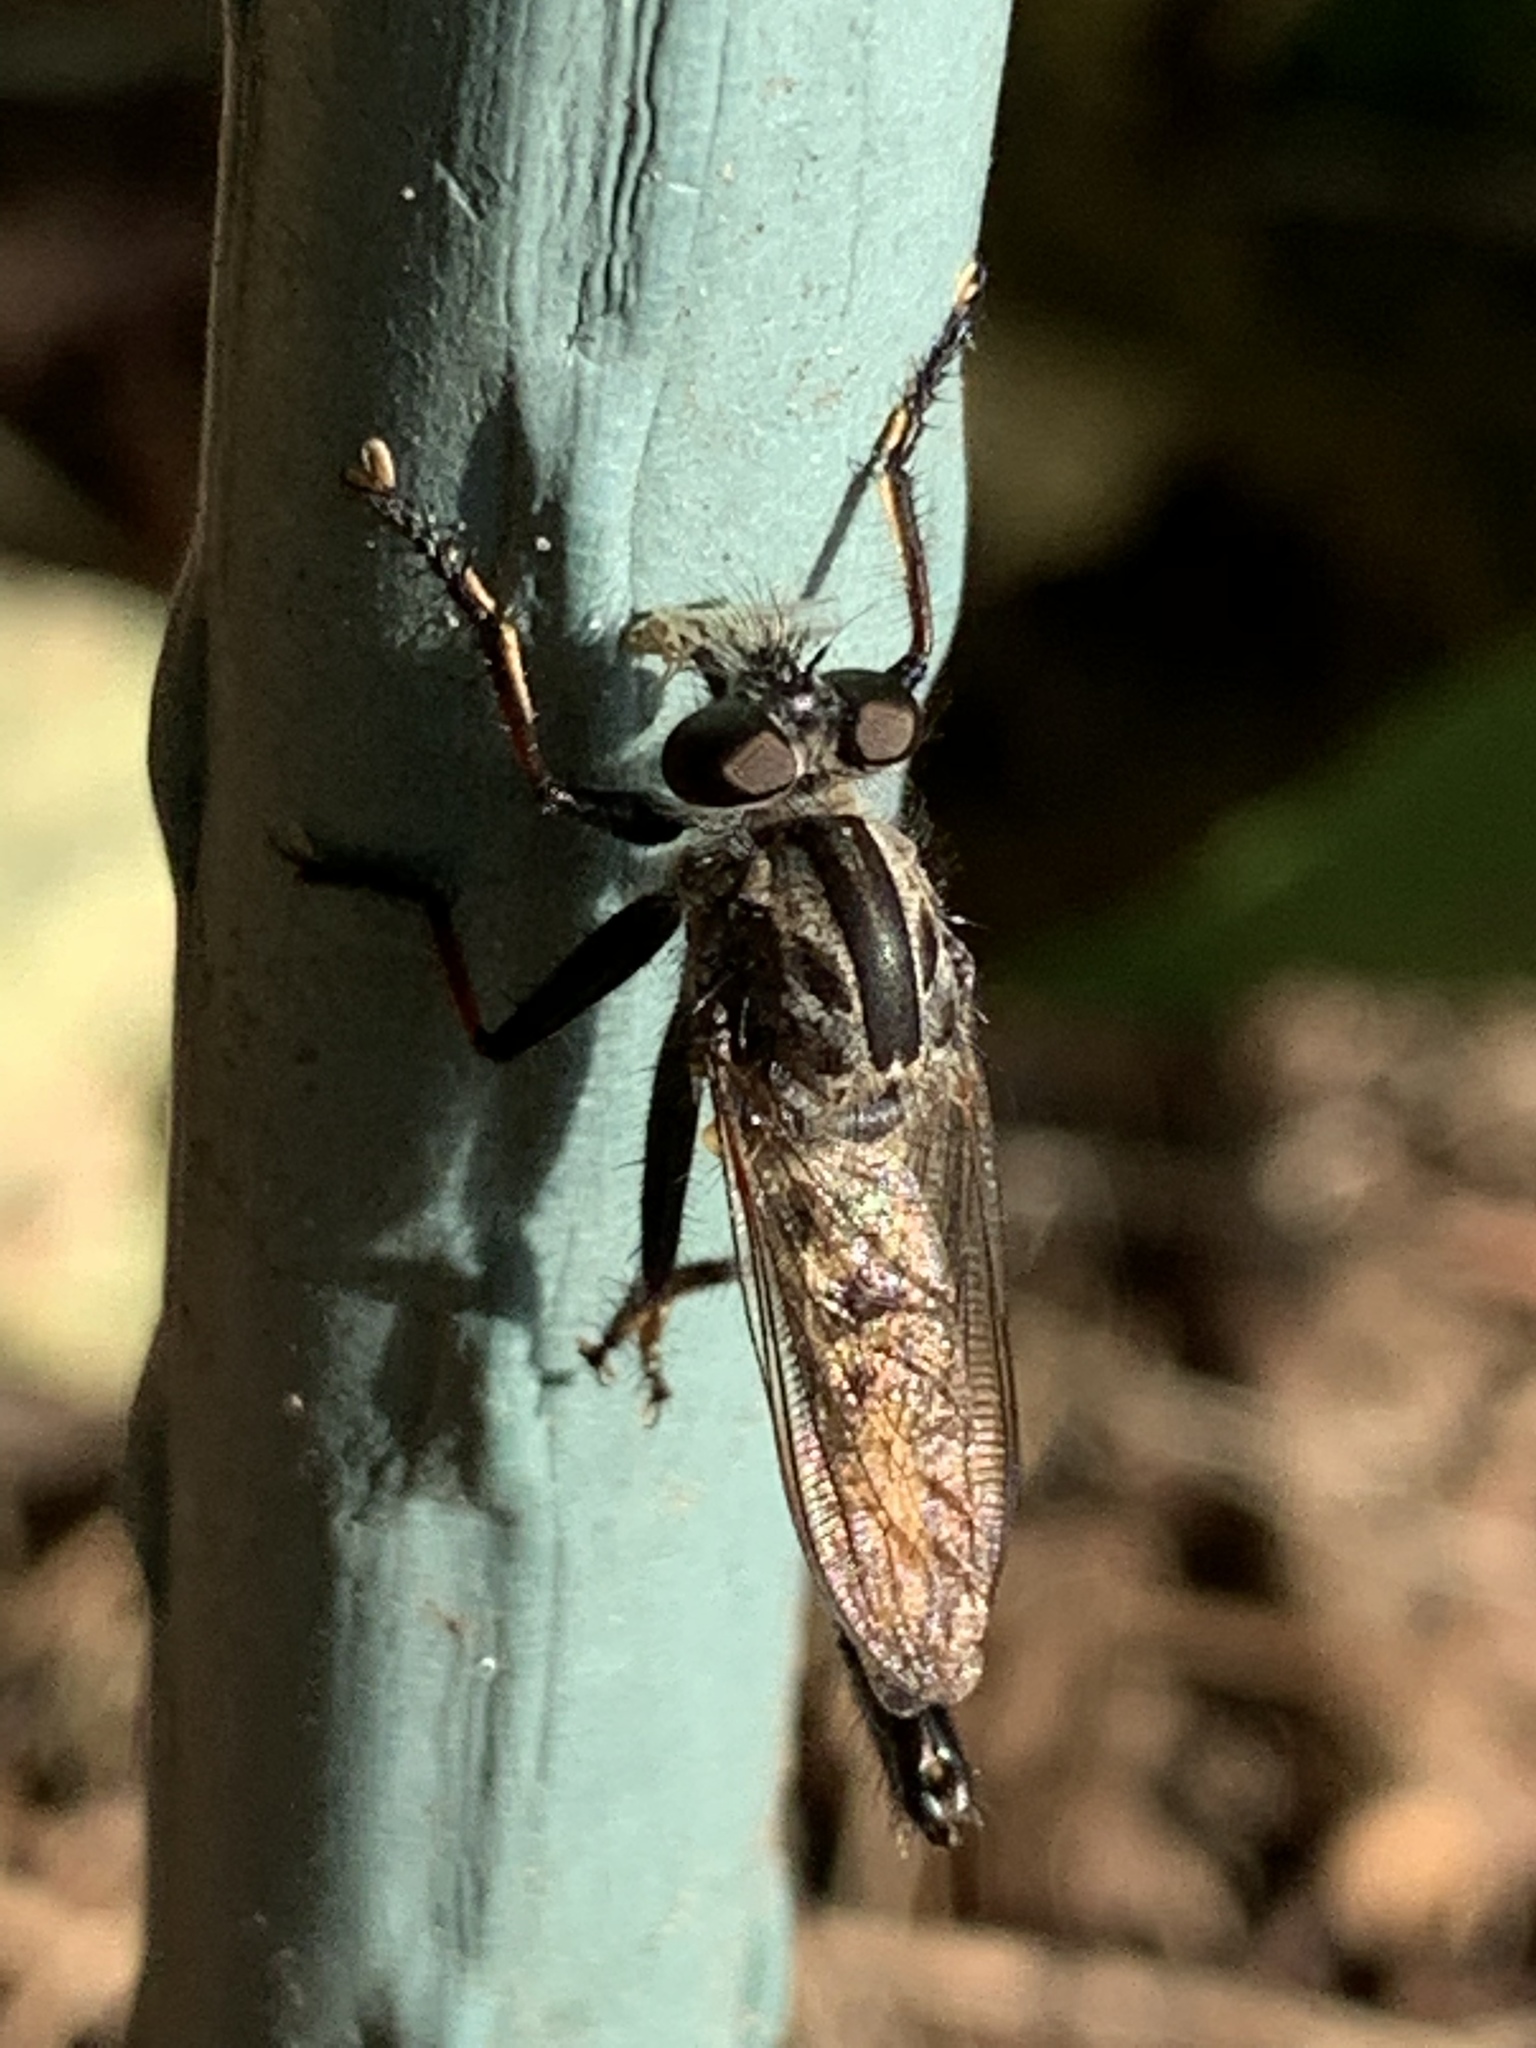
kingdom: Animalia
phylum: Arthropoda
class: Insecta
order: Diptera
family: Asilidae
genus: Efferia
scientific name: Efferia aestuans
